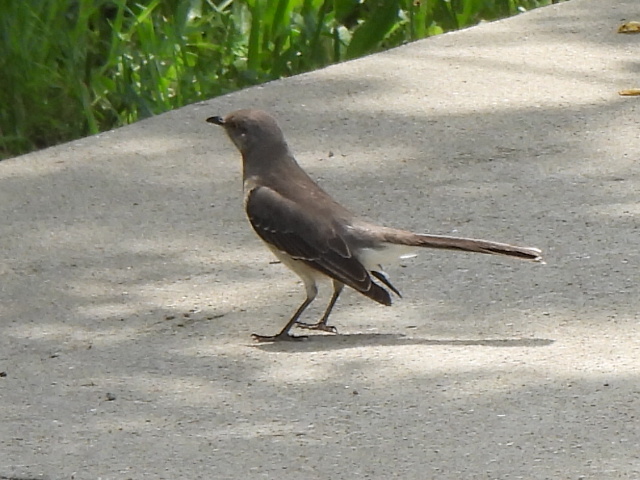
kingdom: Animalia
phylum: Chordata
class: Aves
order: Passeriformes
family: Mimidae
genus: Mimus
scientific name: Mimus polyglottos
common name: Northern mockingbird
